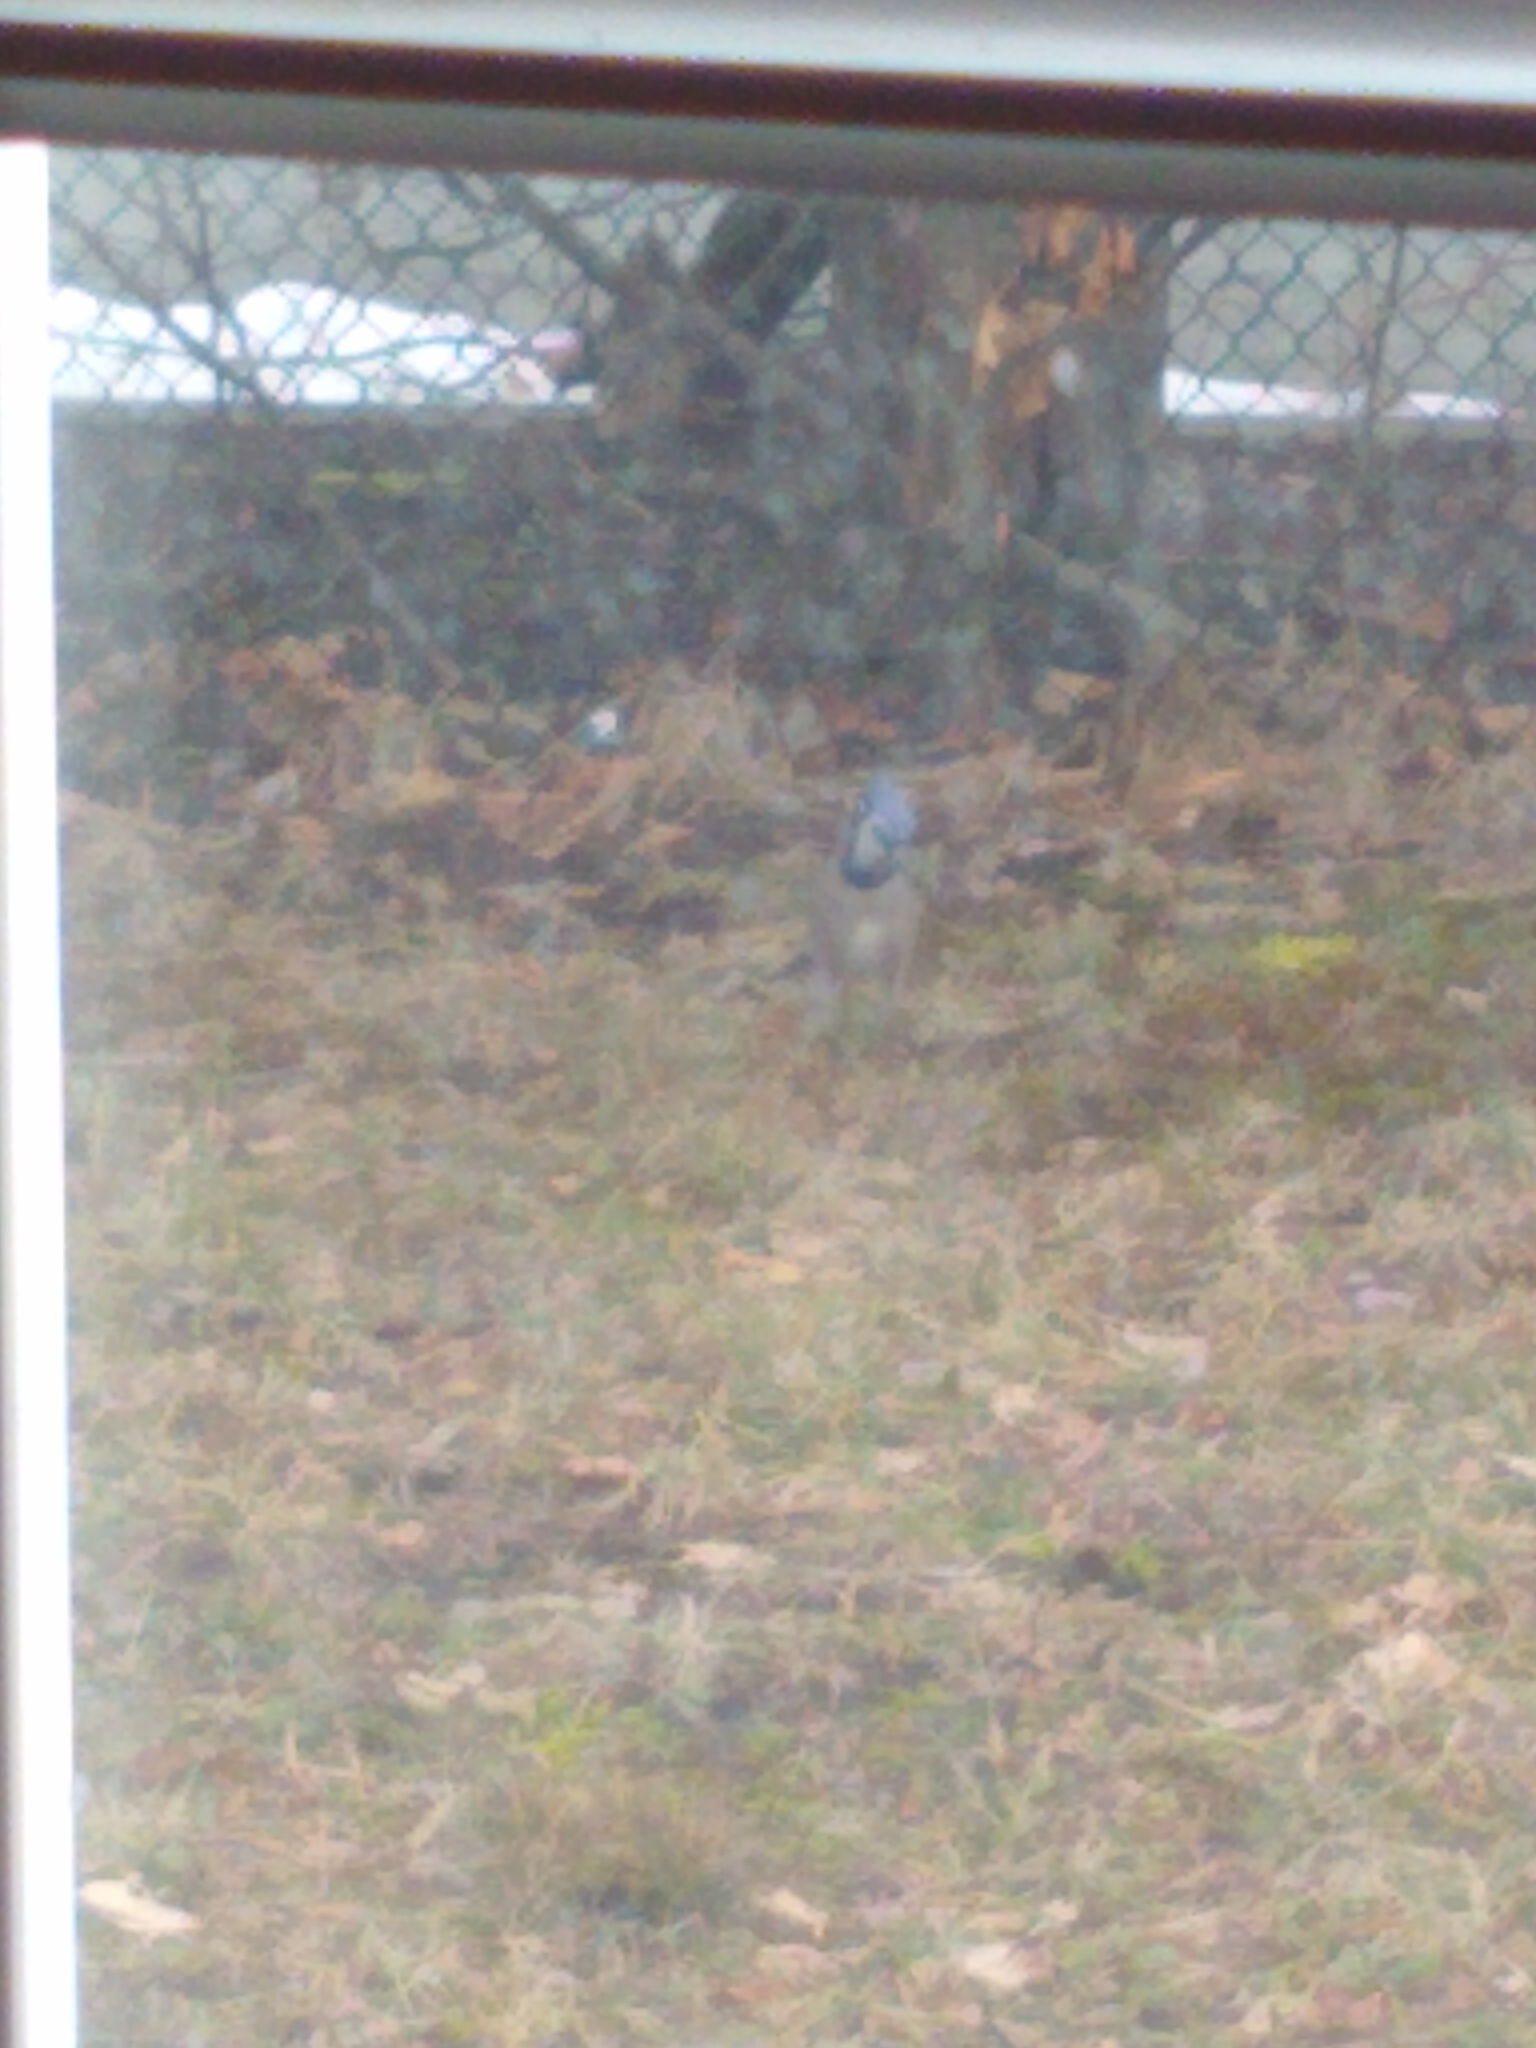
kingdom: Animalia
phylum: Chordata
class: Aves
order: Passeriformes
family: Corvidae
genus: Cyanocitta
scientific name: Cyanocitta cristata
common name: Blue jay
